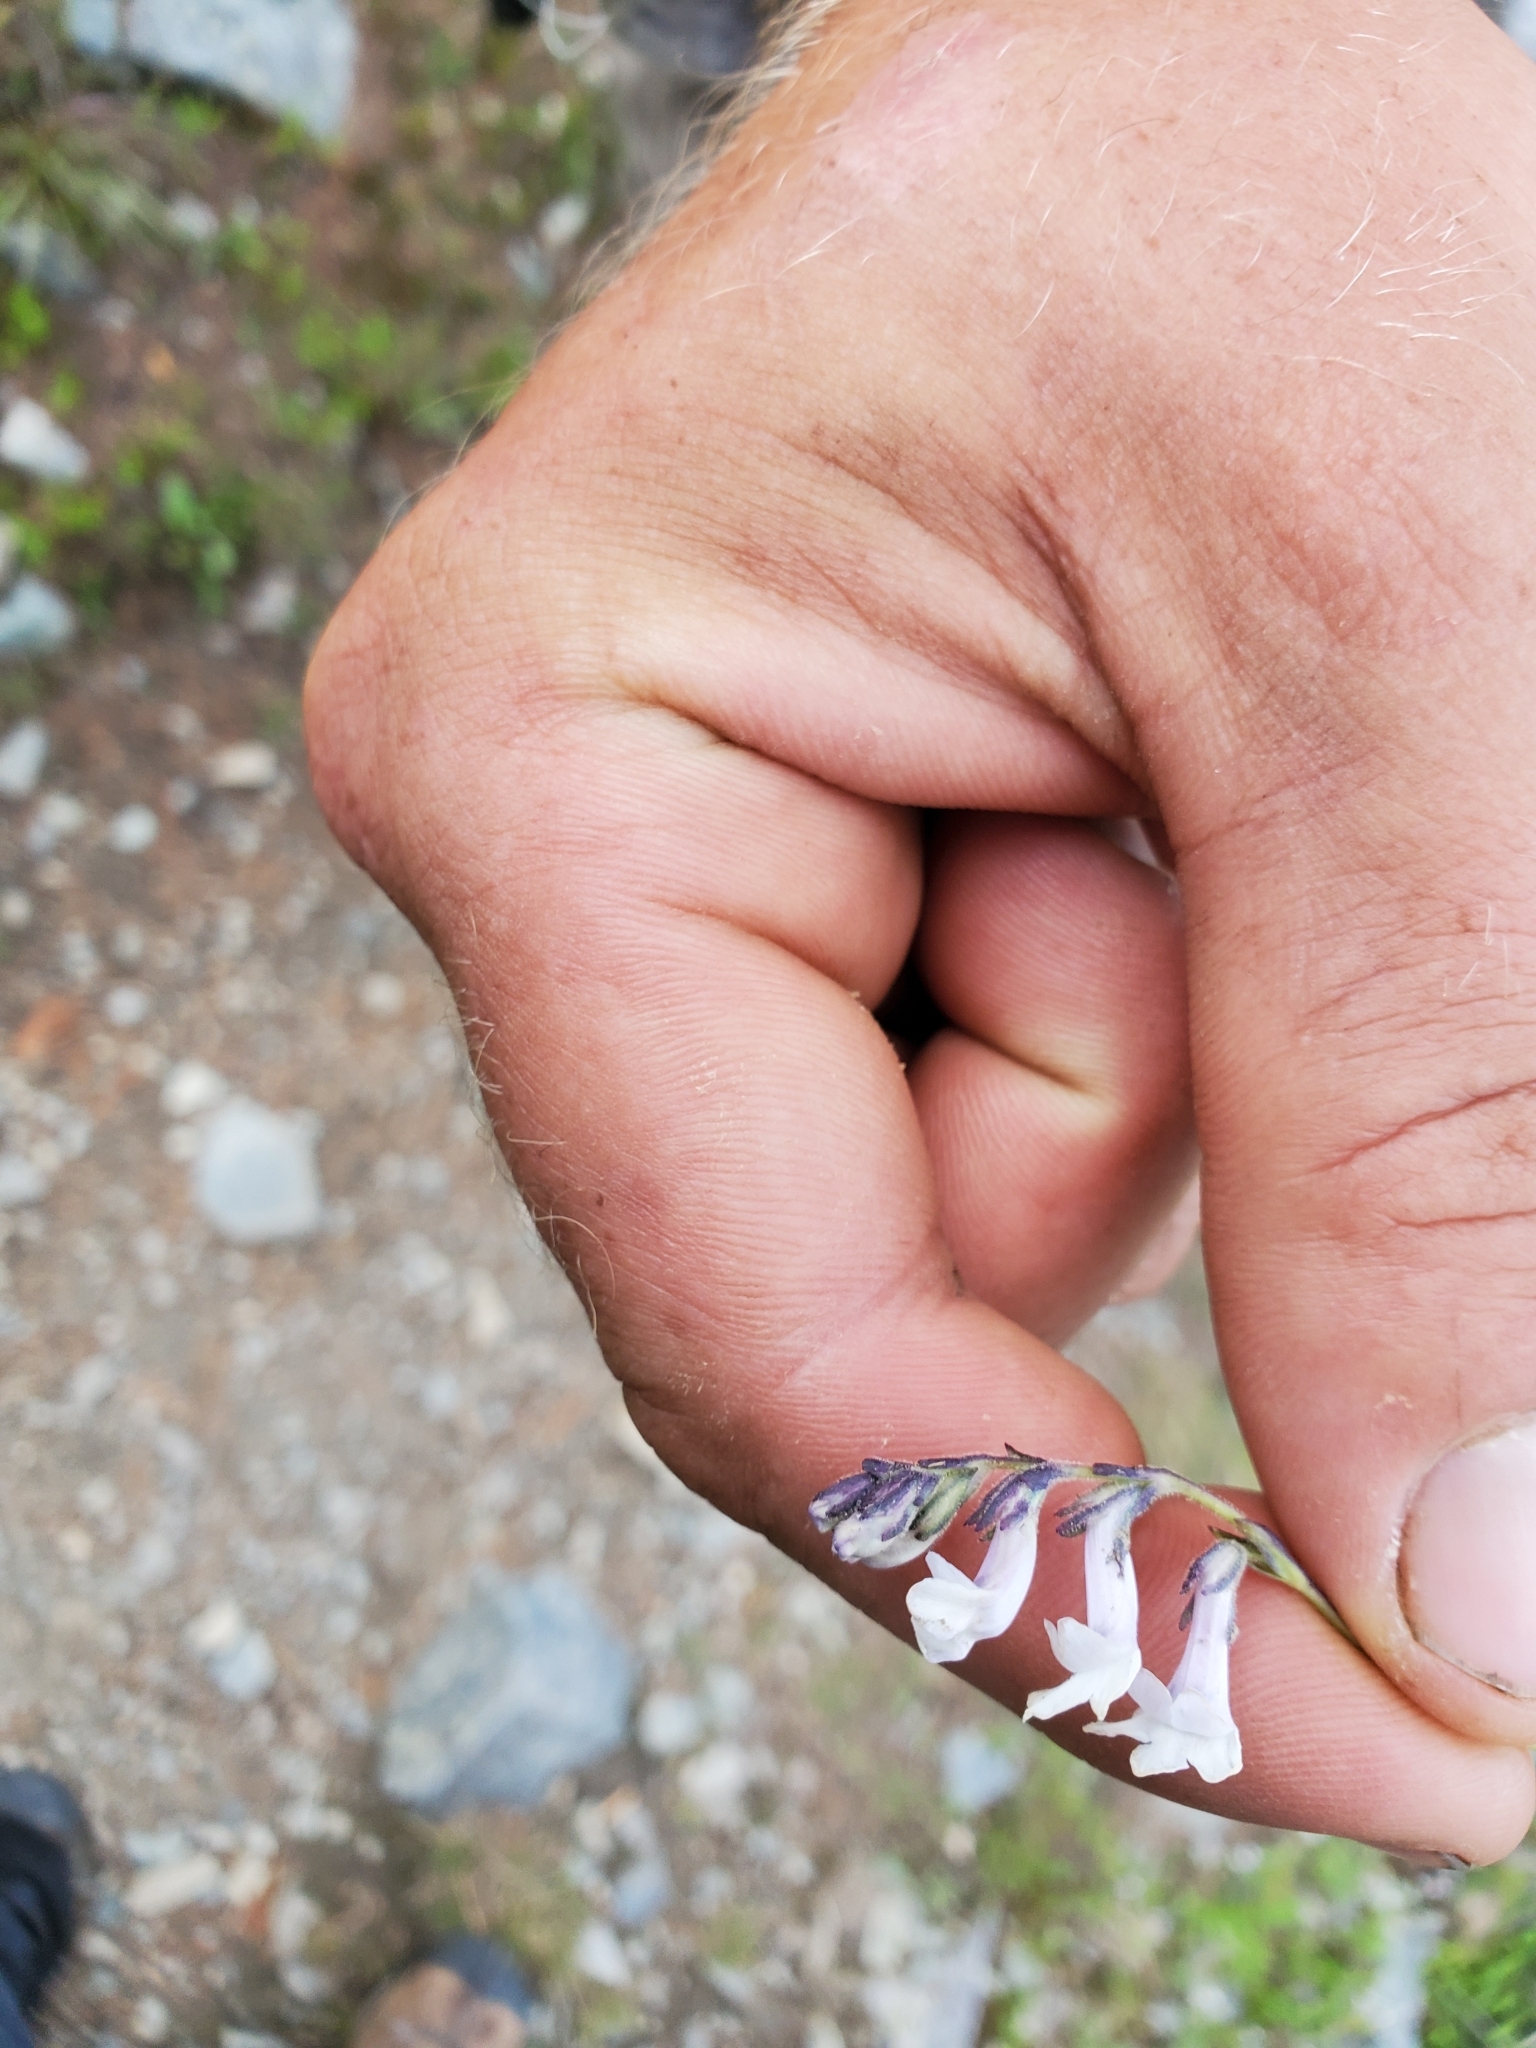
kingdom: Plantae
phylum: Tracheophyta
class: Magnoliopsida
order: Lamiales
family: Plantaginaceae
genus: Chionophila
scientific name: Chionophila tweedyi
